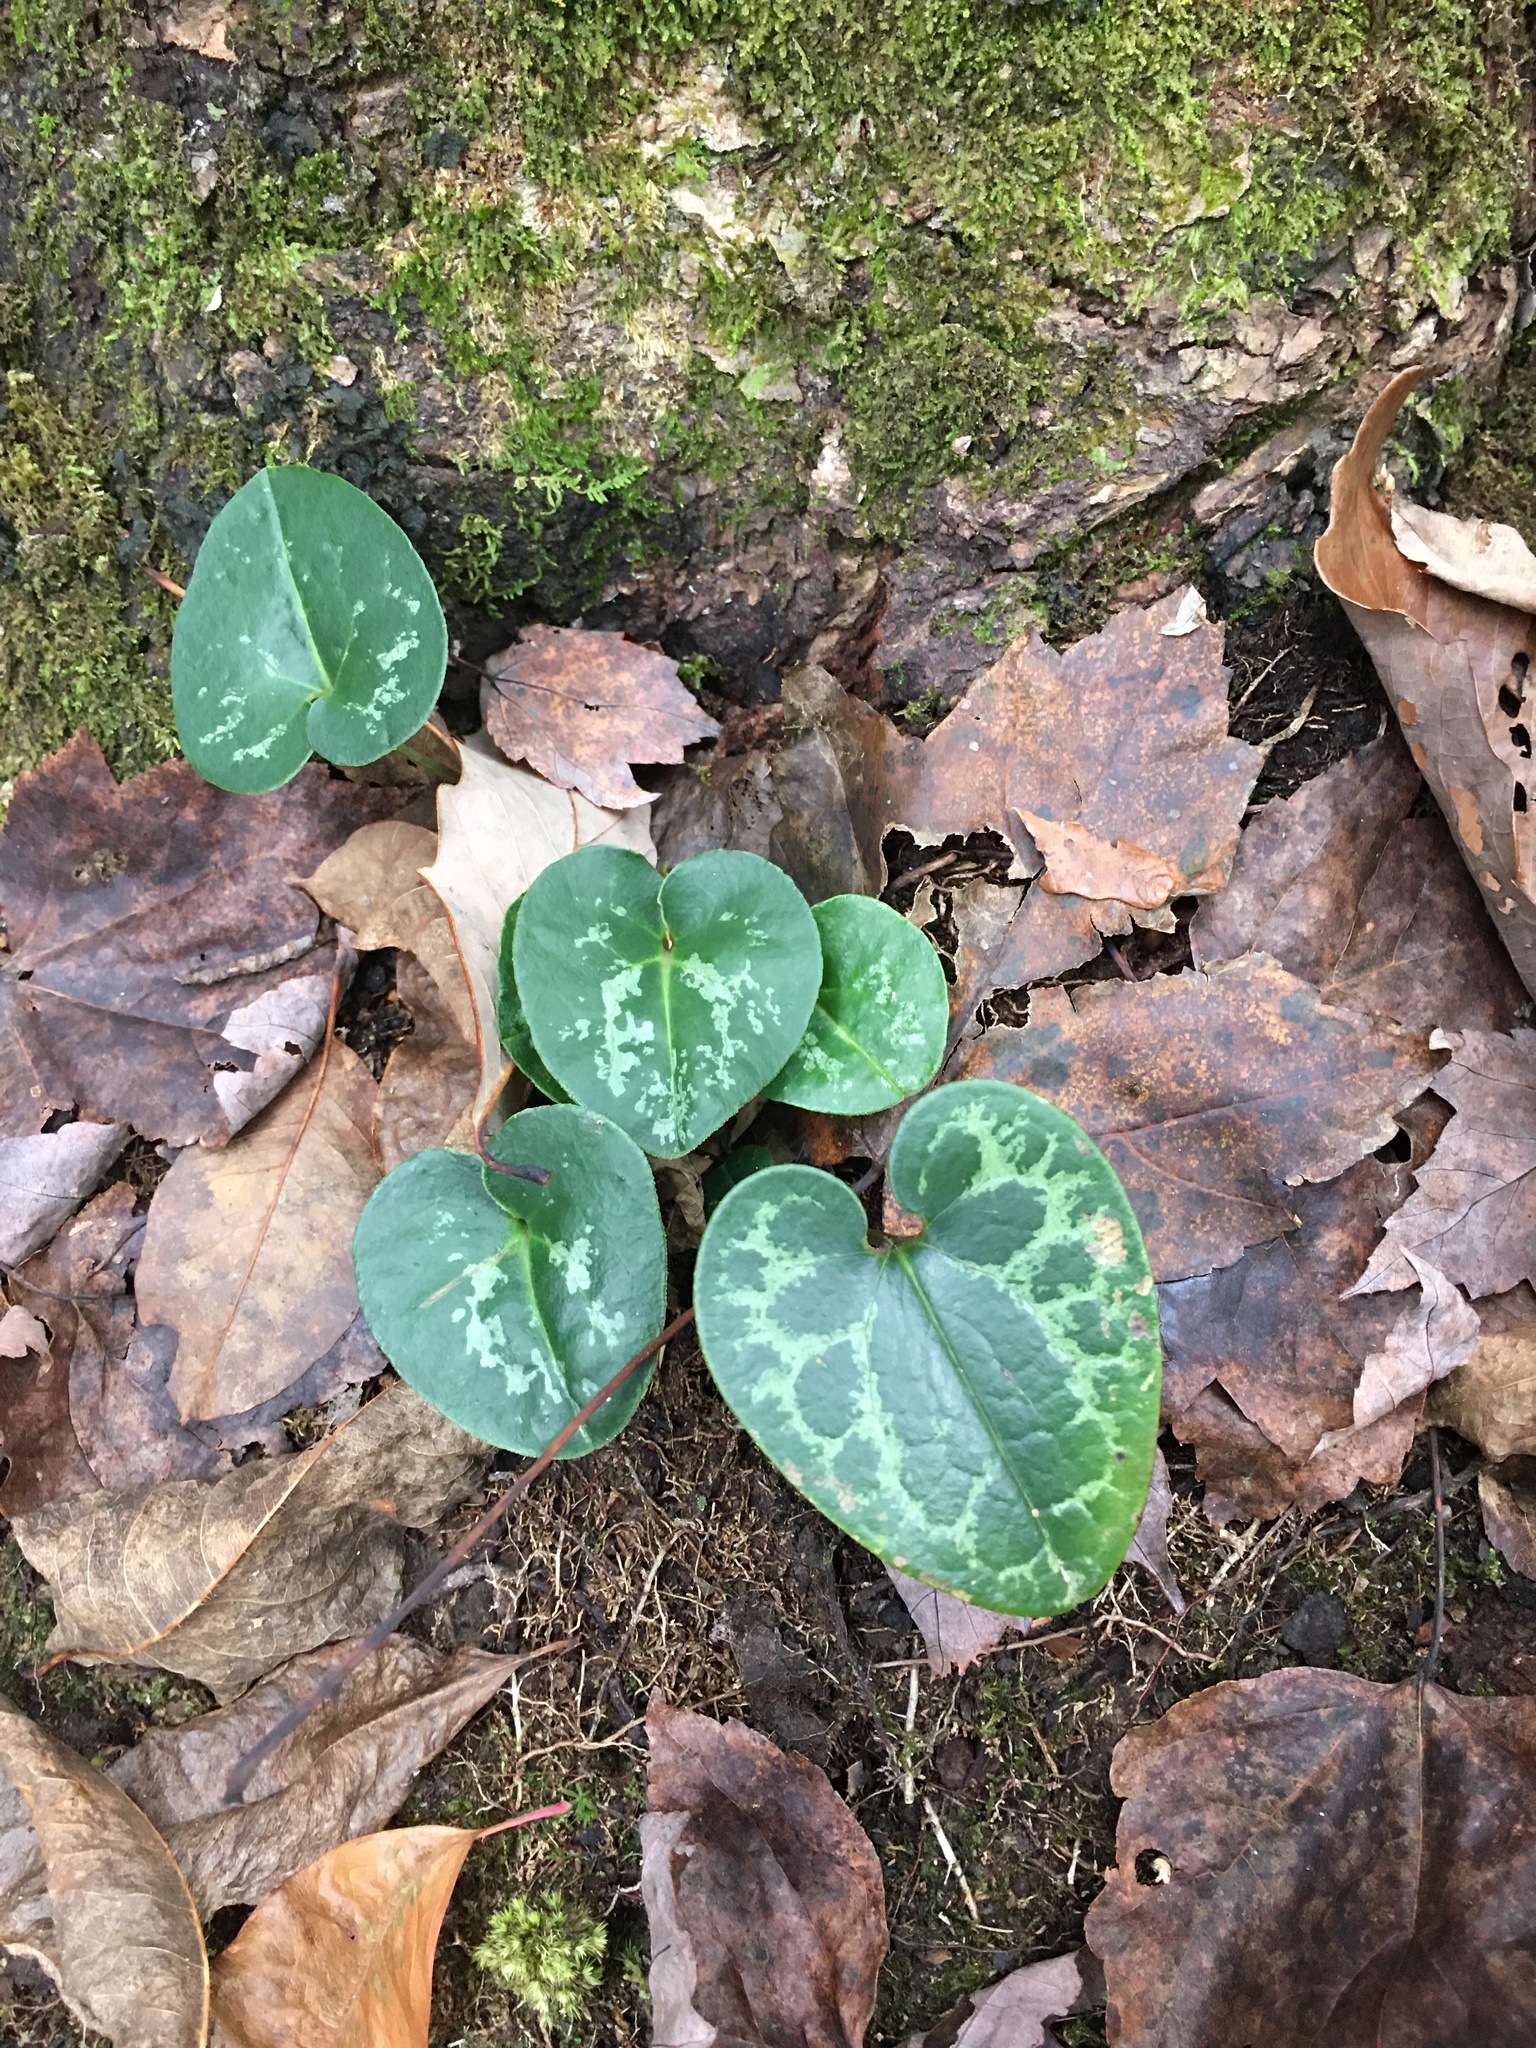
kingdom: Plantae
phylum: Tracheophyta
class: Magnoliopsida
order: Piperales
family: Aristolochiaceae
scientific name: Aristolochiaceae
